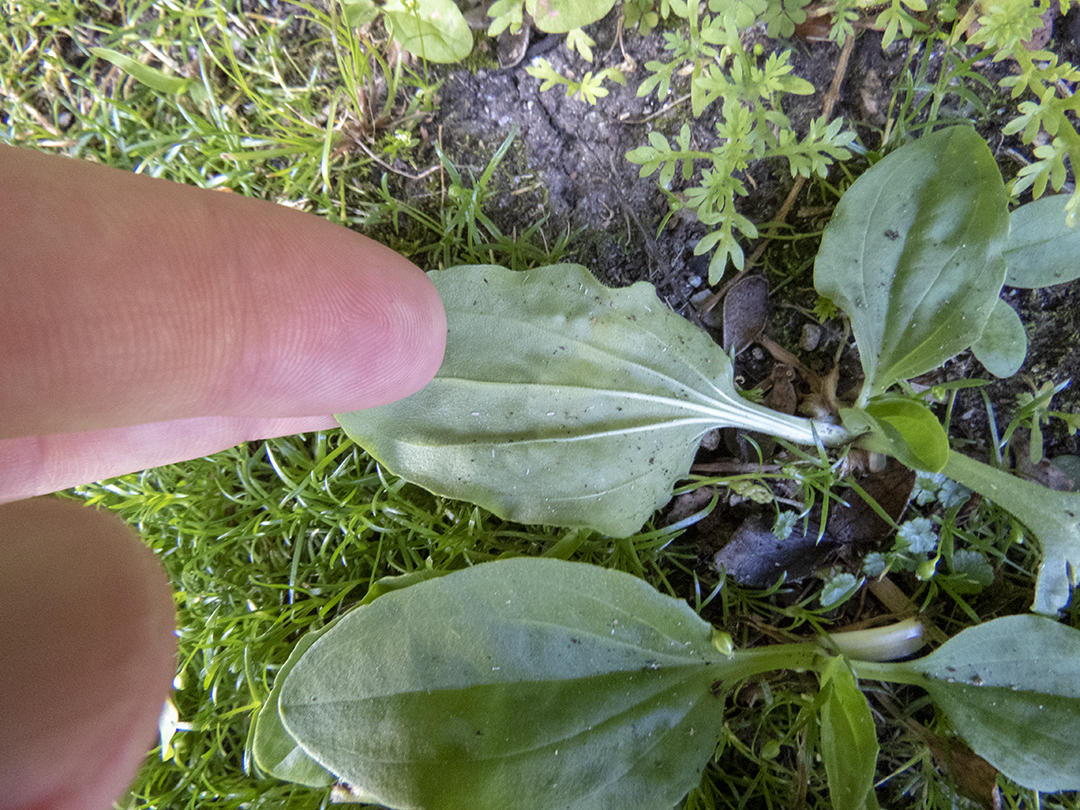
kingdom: Plantae
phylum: Tracheophyta
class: Magnoliopsida
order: Lamiales
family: Plantaginaceae
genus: Plantago
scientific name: Plantago major
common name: Common plantain
